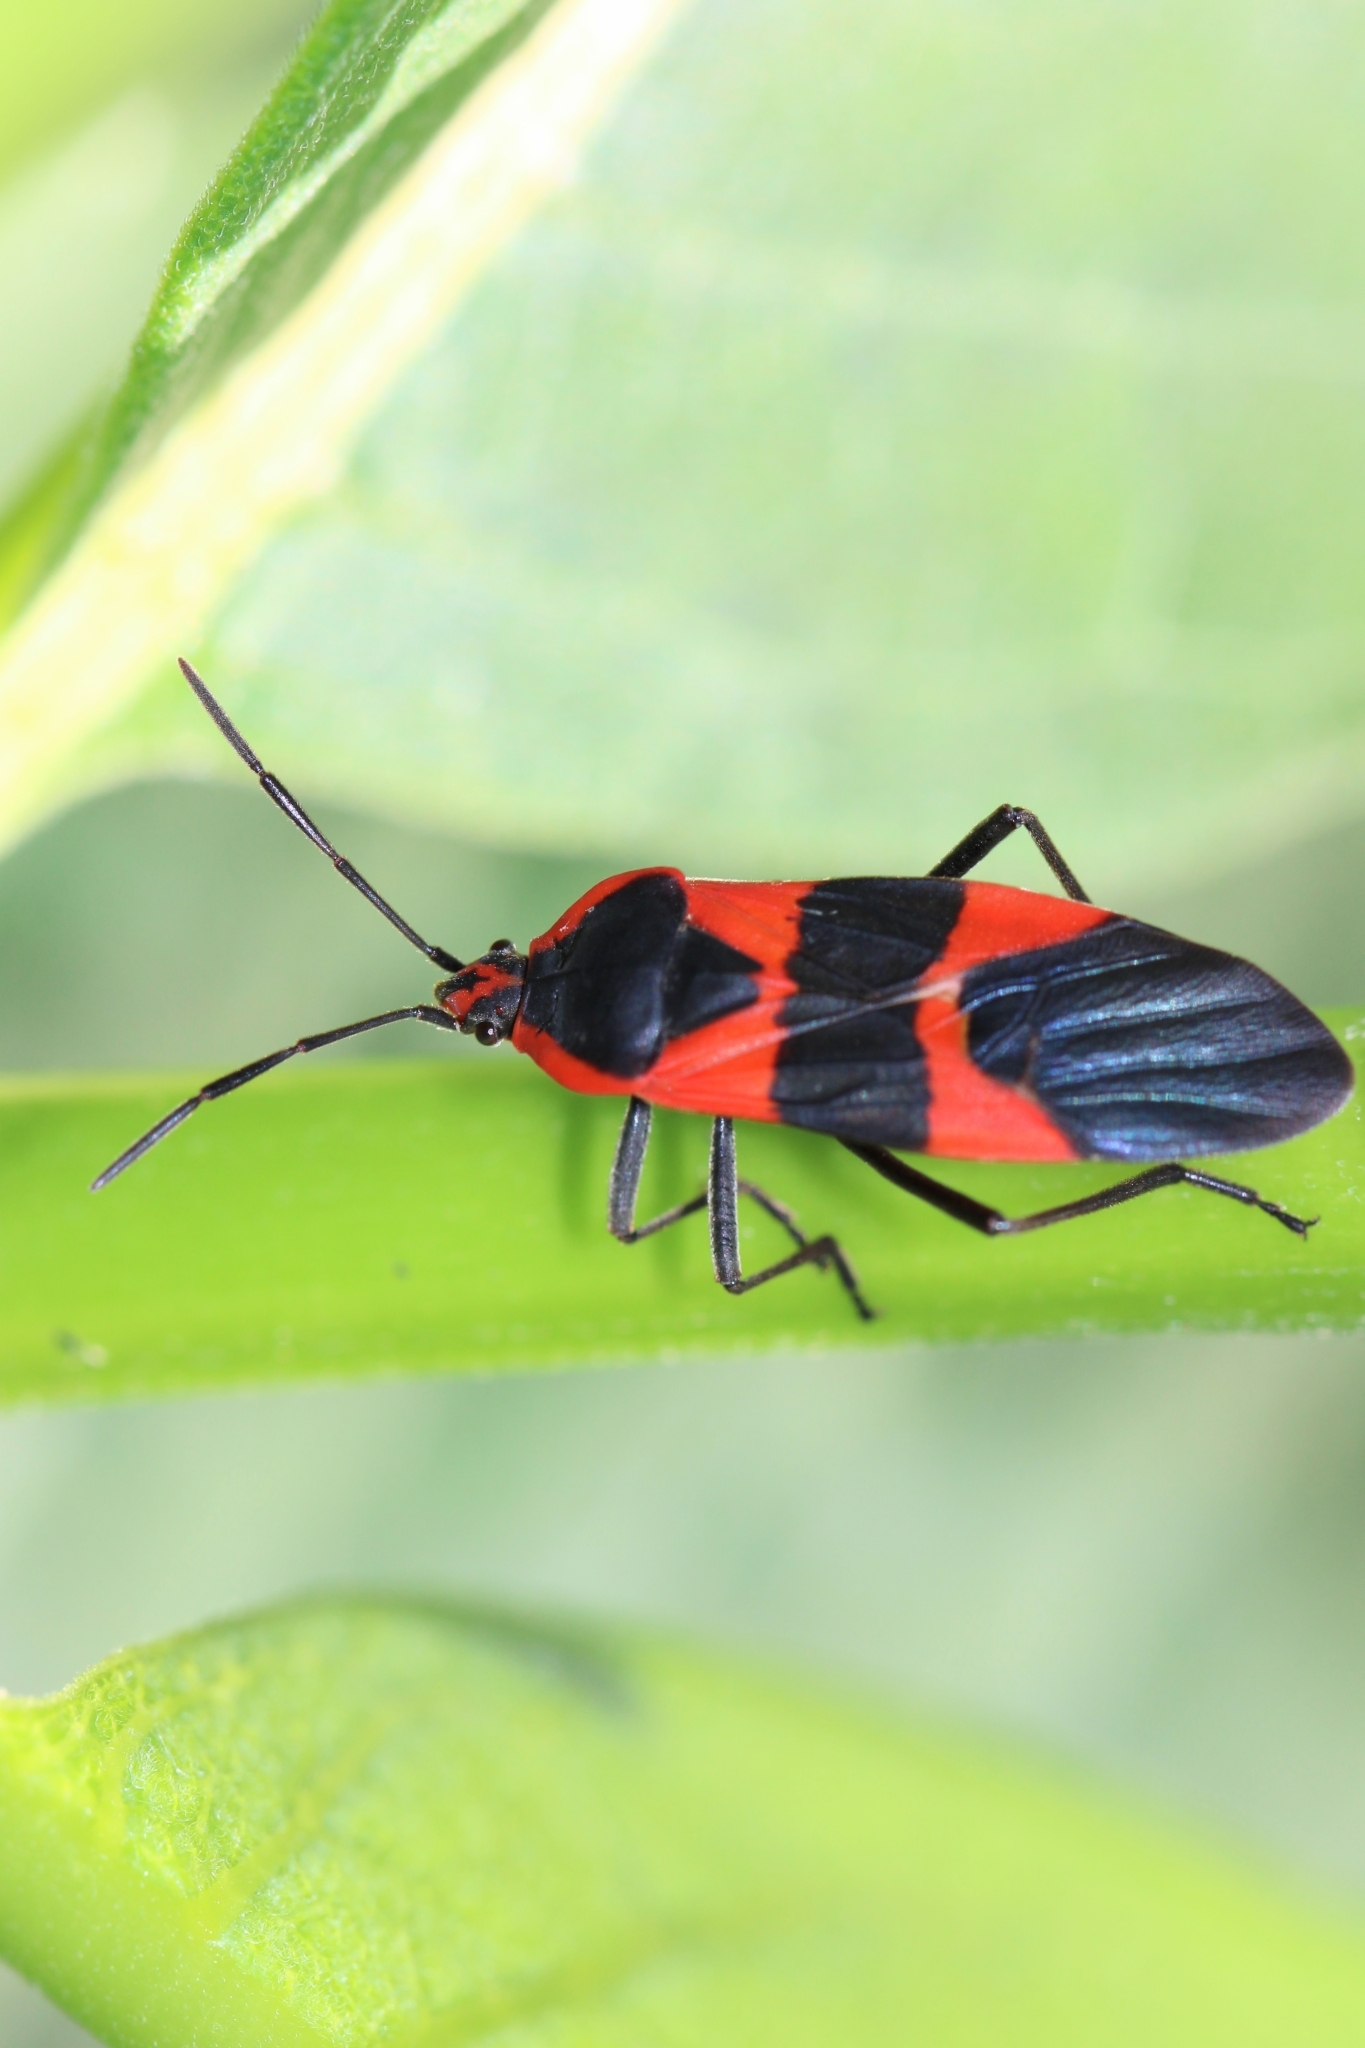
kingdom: Animalia
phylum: Arthropoda
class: Insecta
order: Hemiptera
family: Lygaeidae
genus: Oncopeltus
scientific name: Oncopeltus fasciatus
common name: Large milkweed bug
